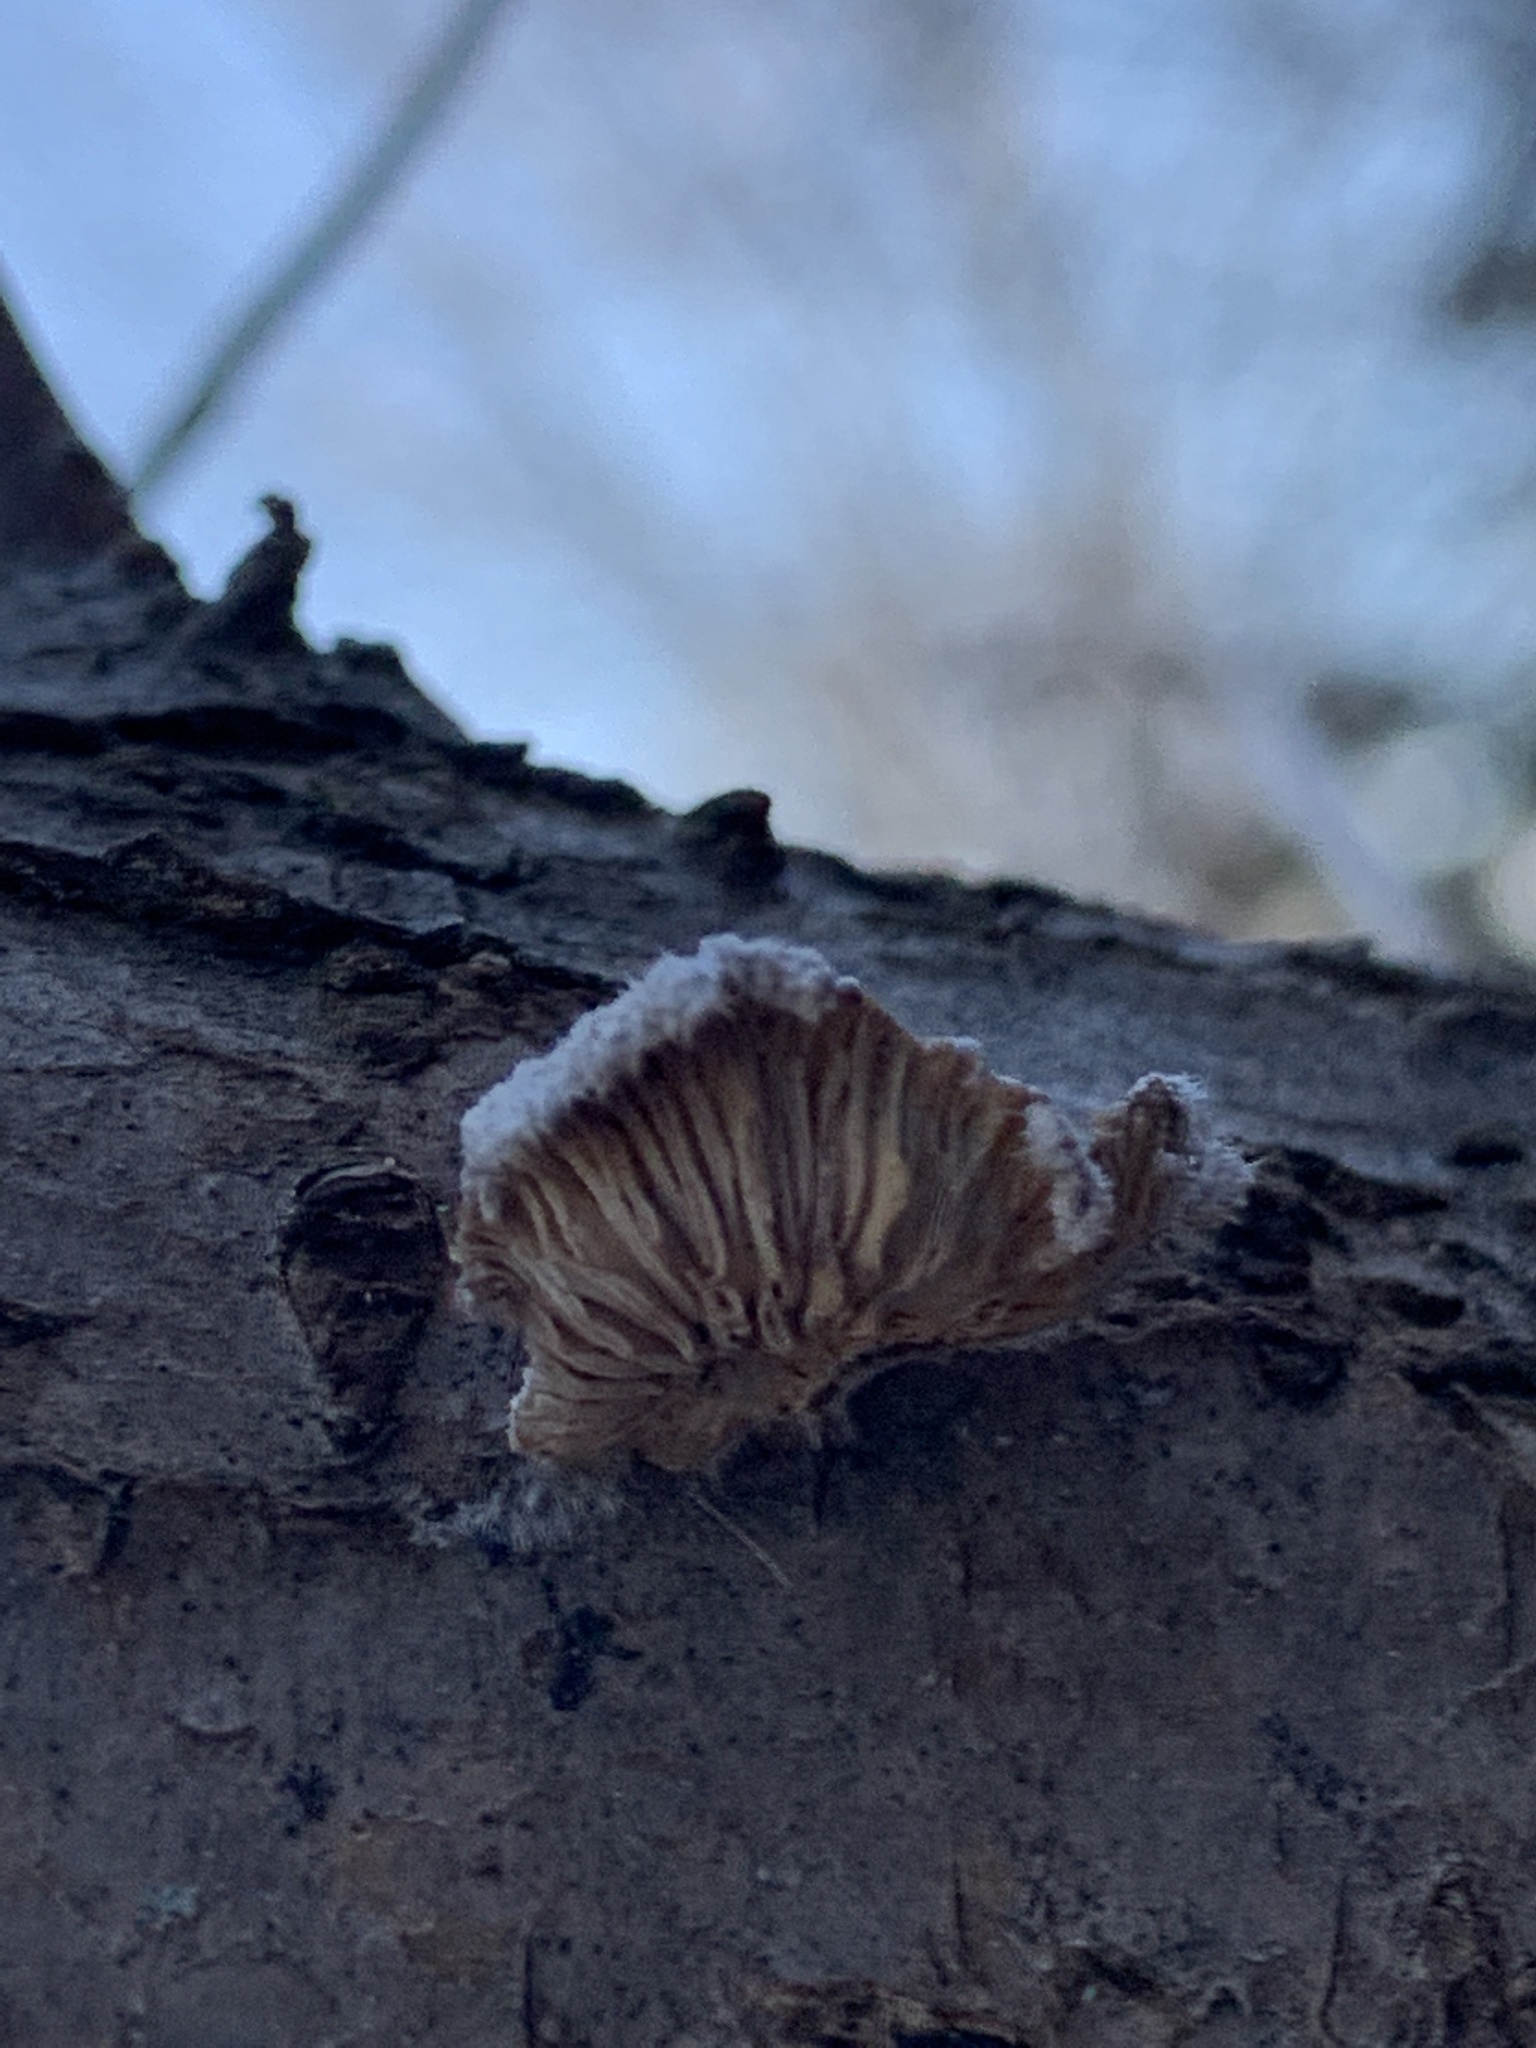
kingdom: Fungi
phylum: Basidiomycota
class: Agaricomycetes
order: Agaricales
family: Schizophyllaceae
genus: Schizophyllum
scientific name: Schizophyllum commune
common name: Common porecrust
